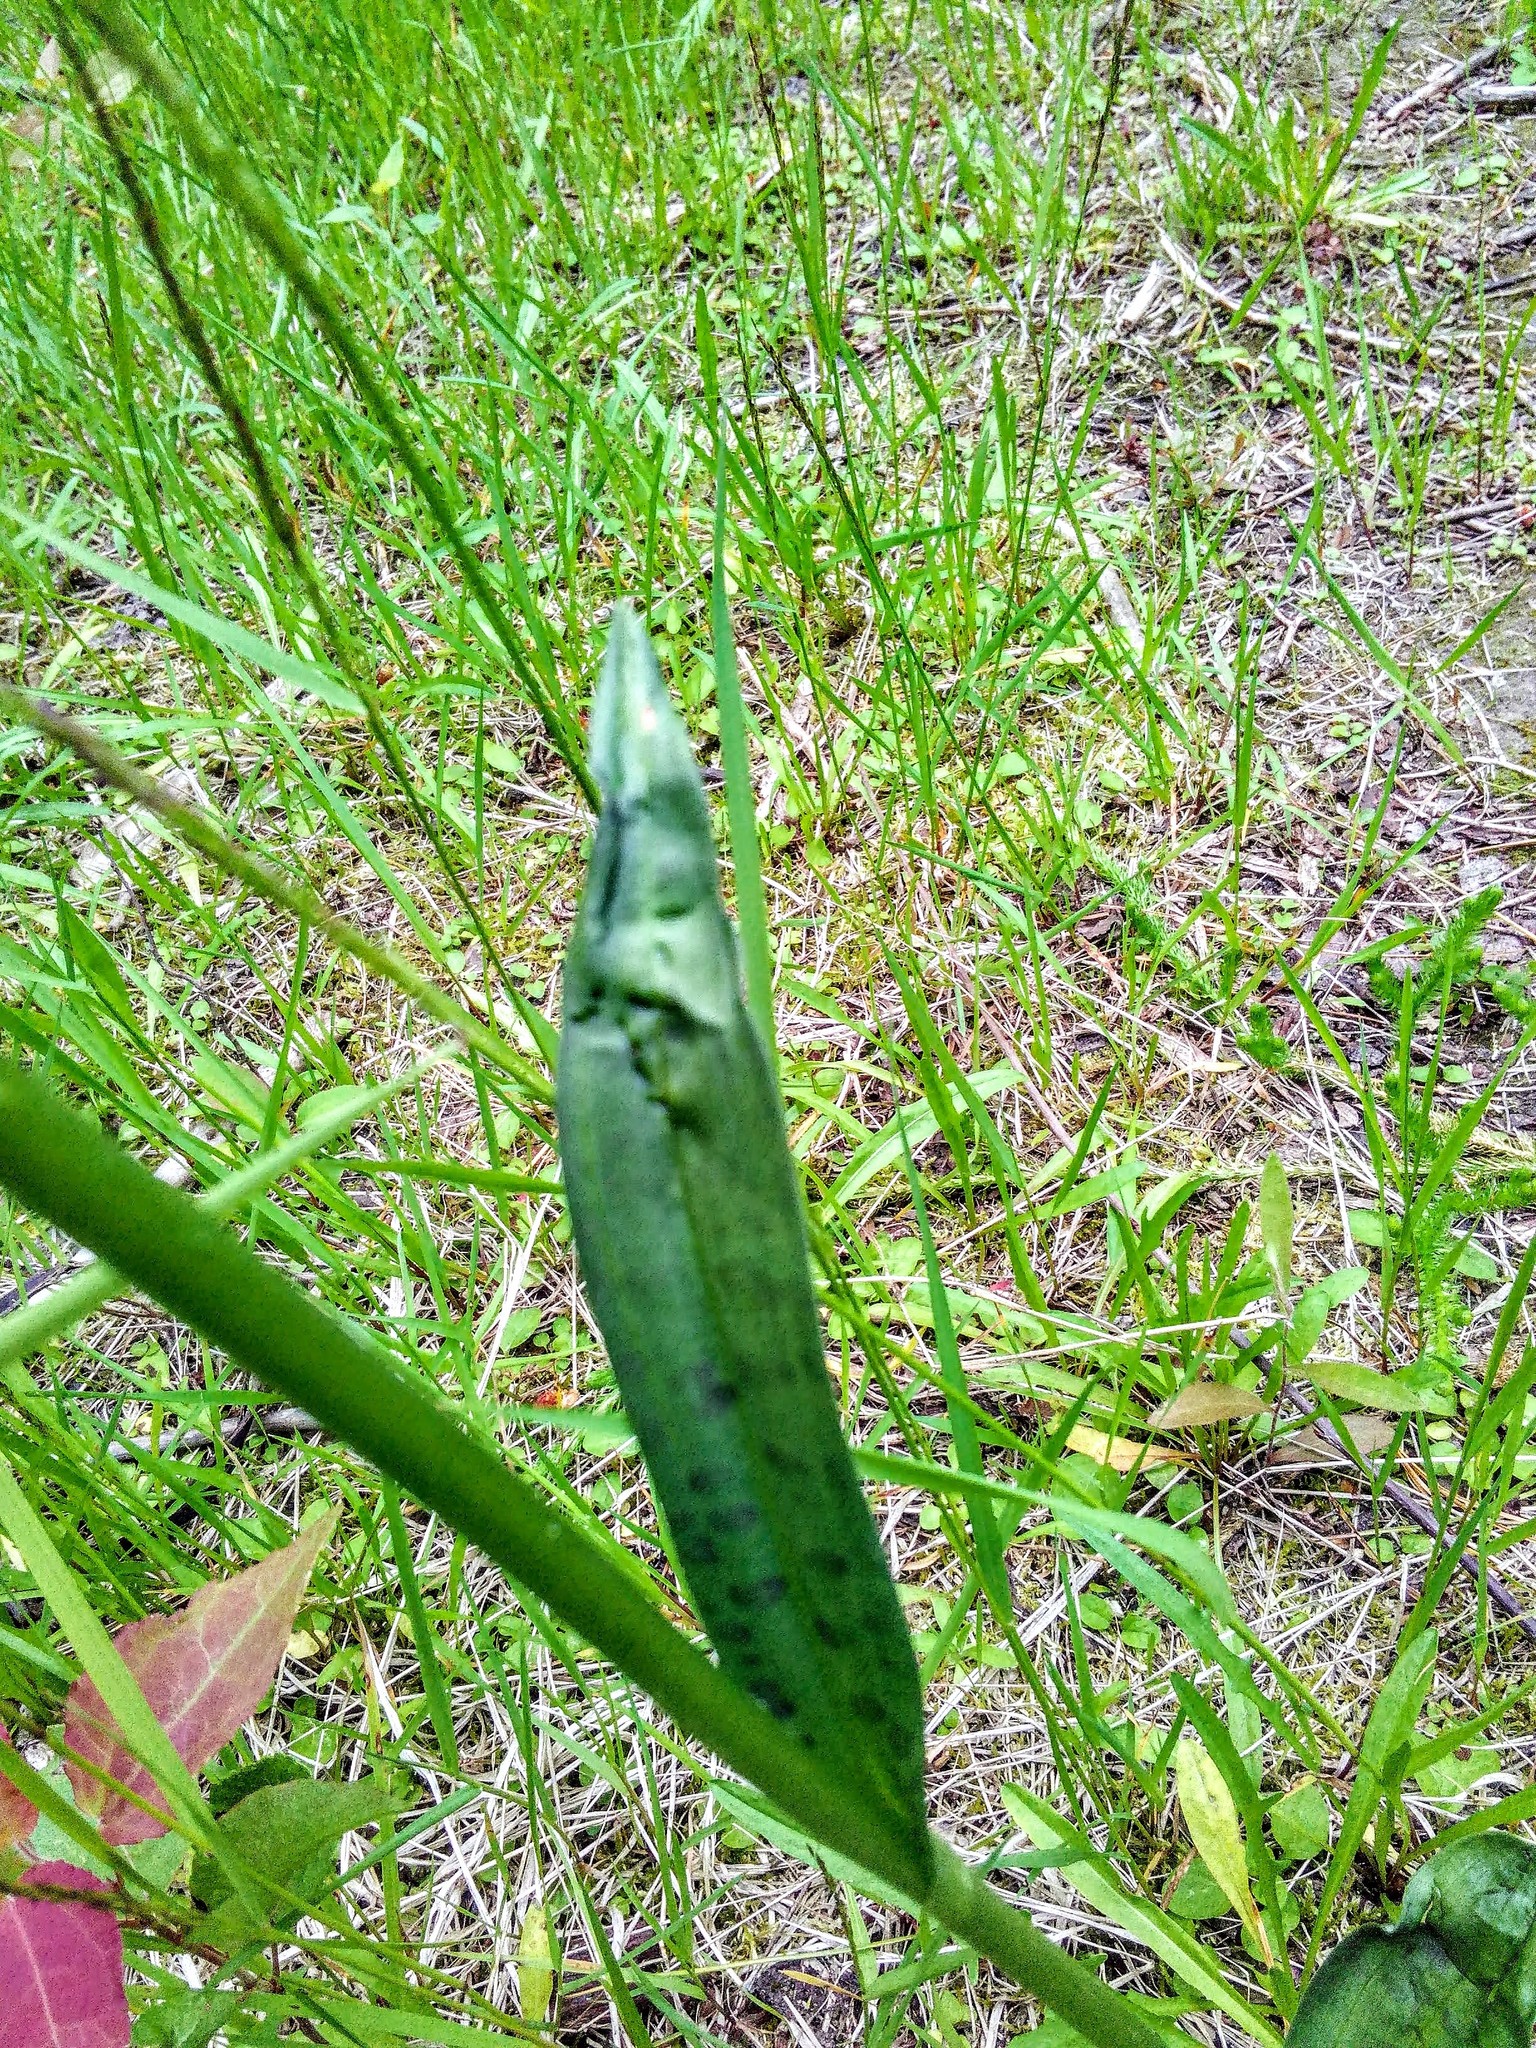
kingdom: Plantae
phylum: Tracheophyta
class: Liliopsida
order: Asparagales
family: Orchidaceae
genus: Dactylorhiza
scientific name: Dactylorhiza maculata
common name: Heath spotted-orchid
